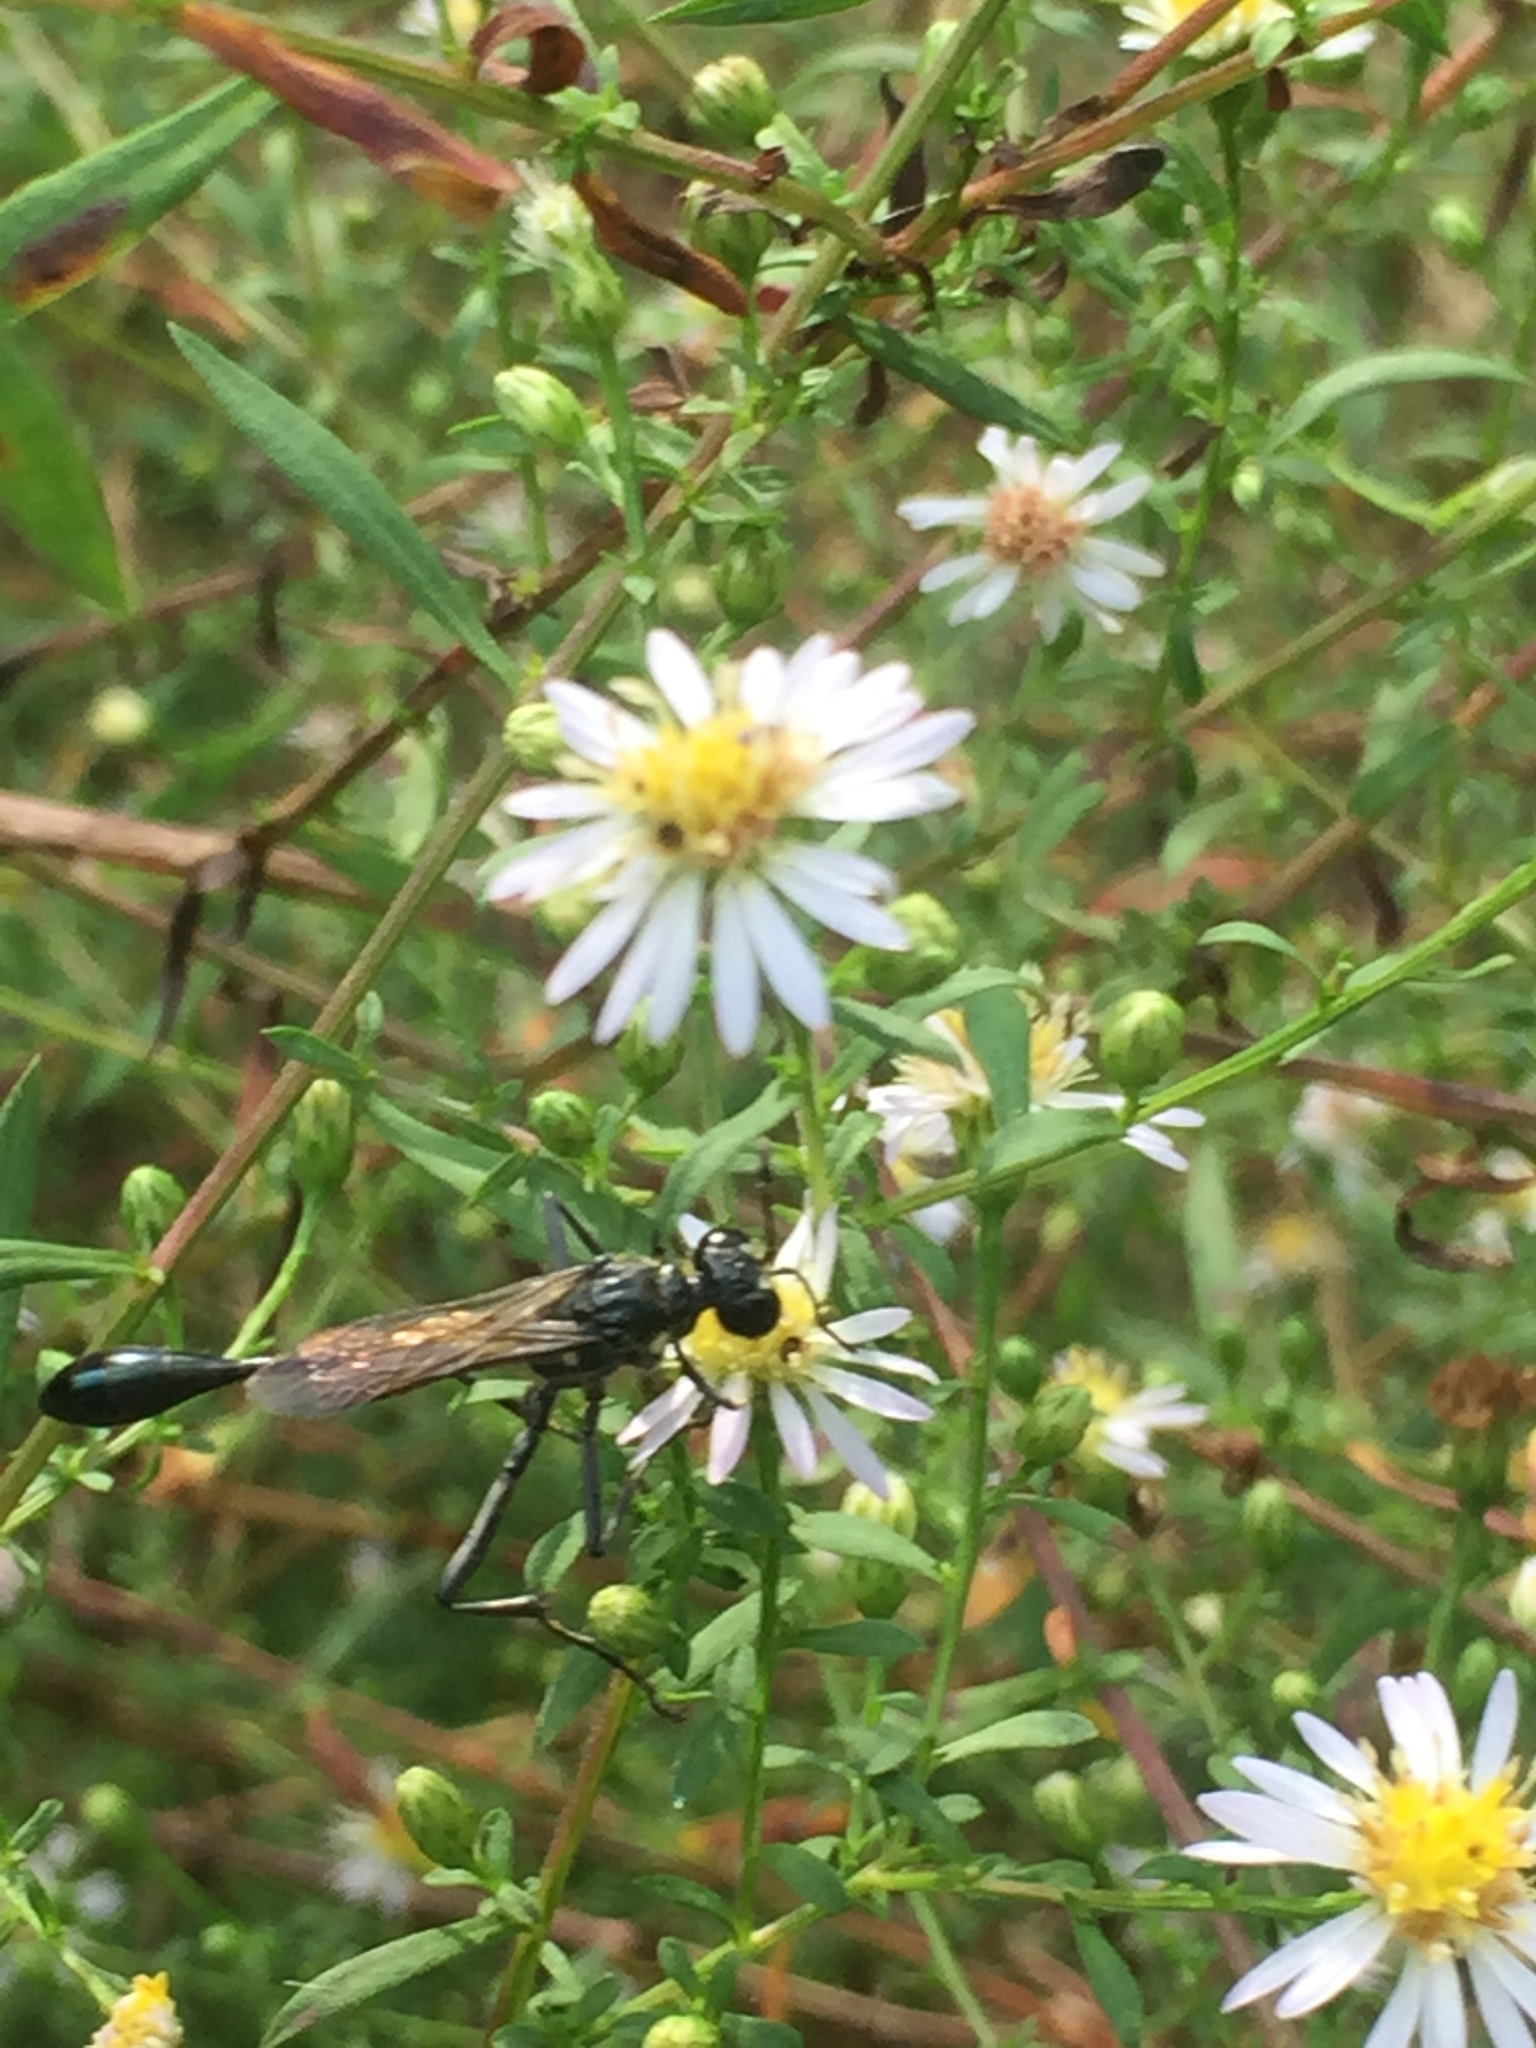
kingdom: Animalia
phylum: Arthropoda
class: Insecta
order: Hymenoptera
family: Sphecidae
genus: Eremnophila
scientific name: Eremnophila aureonotata
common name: Gold-marked thread-waisted wasp
